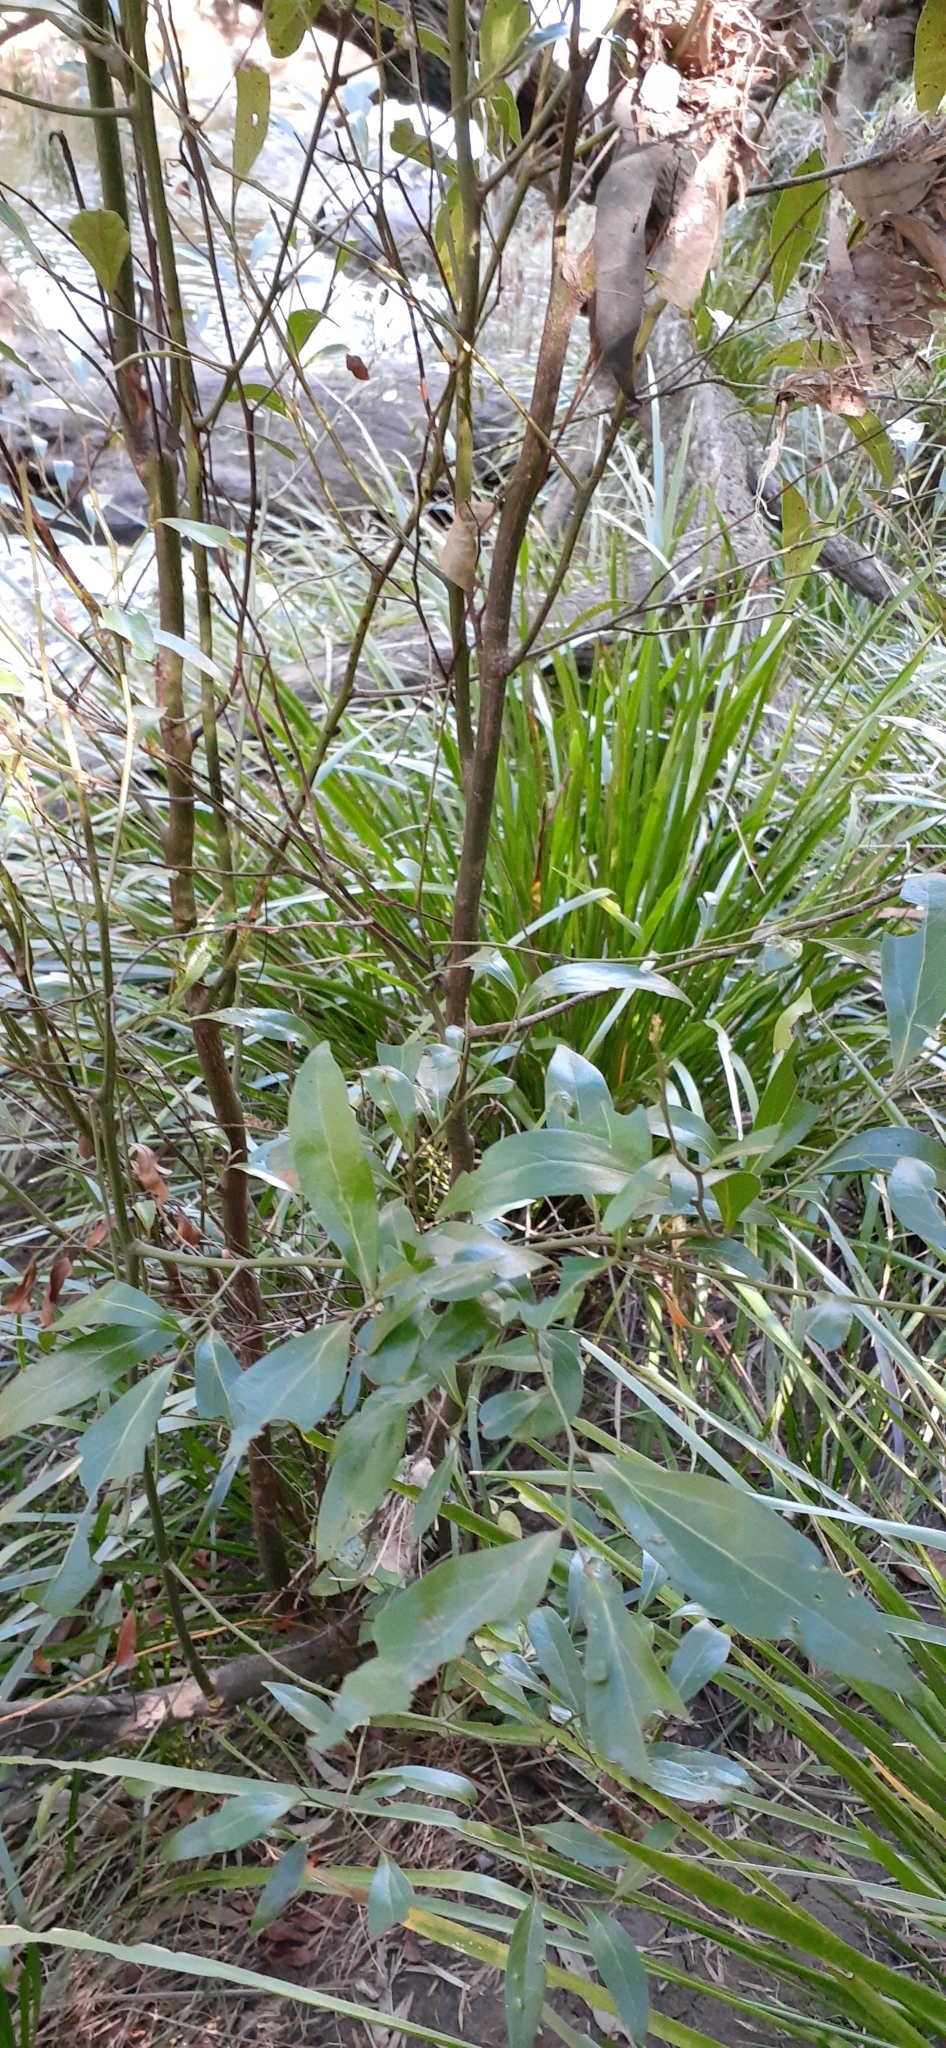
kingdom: Plantae
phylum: Tracheophyta
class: Magnoliopsida
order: Laurales
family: Lauraceae
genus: Cryptocarya
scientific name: Cryptocarya triplinervis
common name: Three-vein cryptocarya
